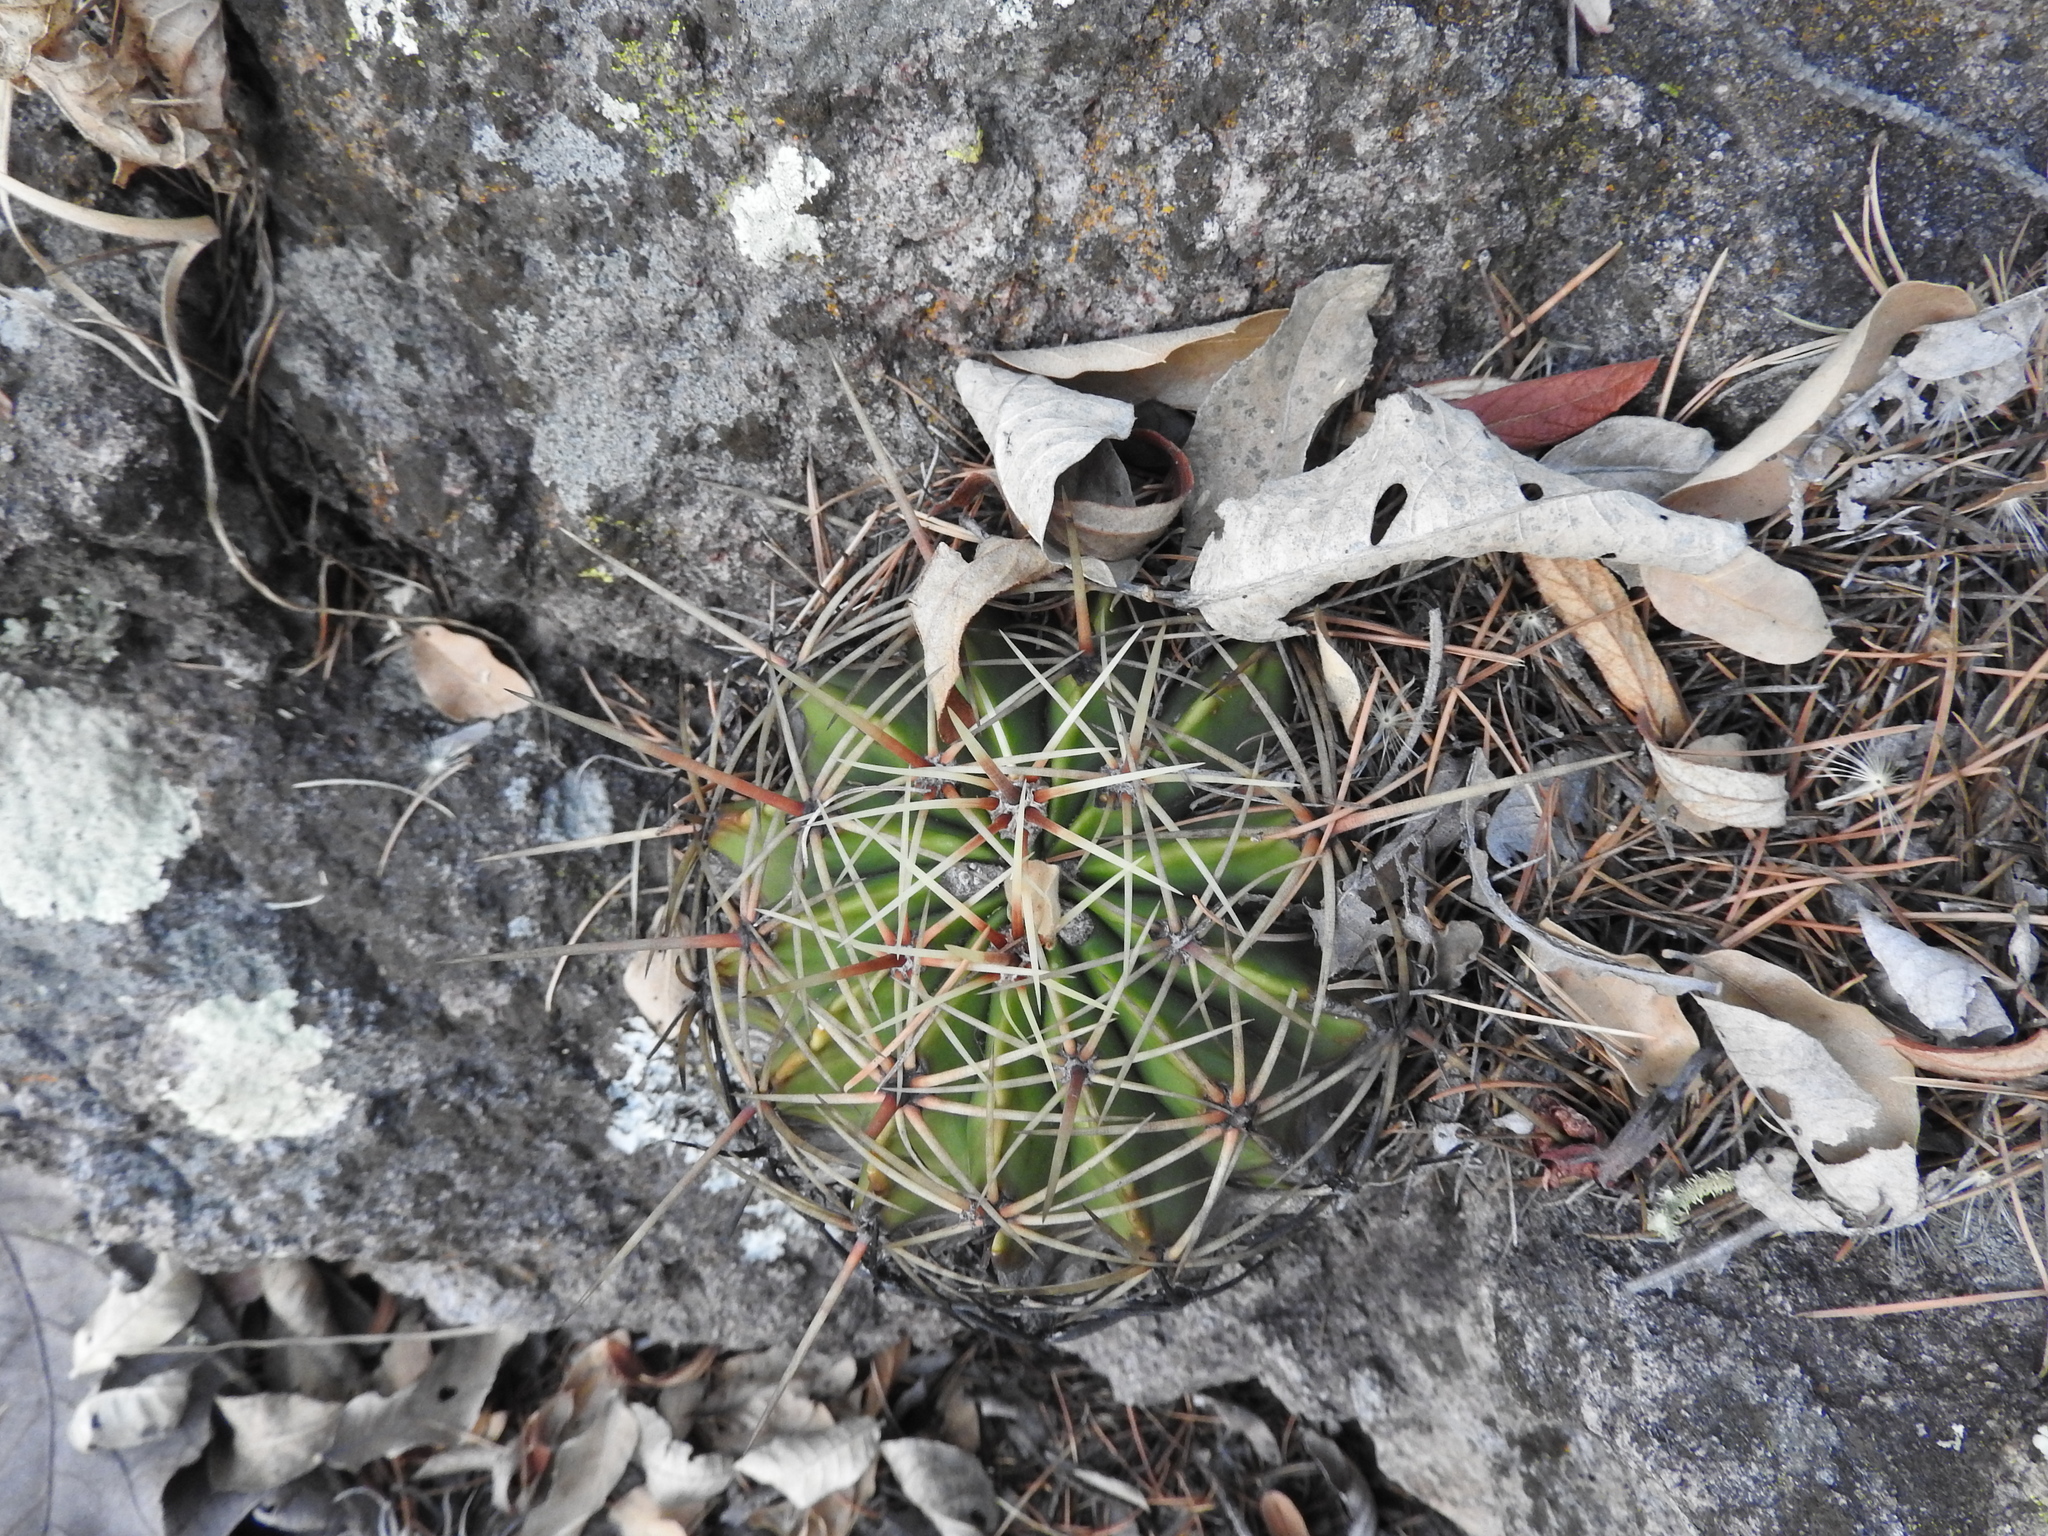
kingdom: Plantae
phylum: Tracheophyta
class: Magnoliopsida
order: Caryophyllales
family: Cactaceae
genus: Bisnaga
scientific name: Bisnaga histrix
